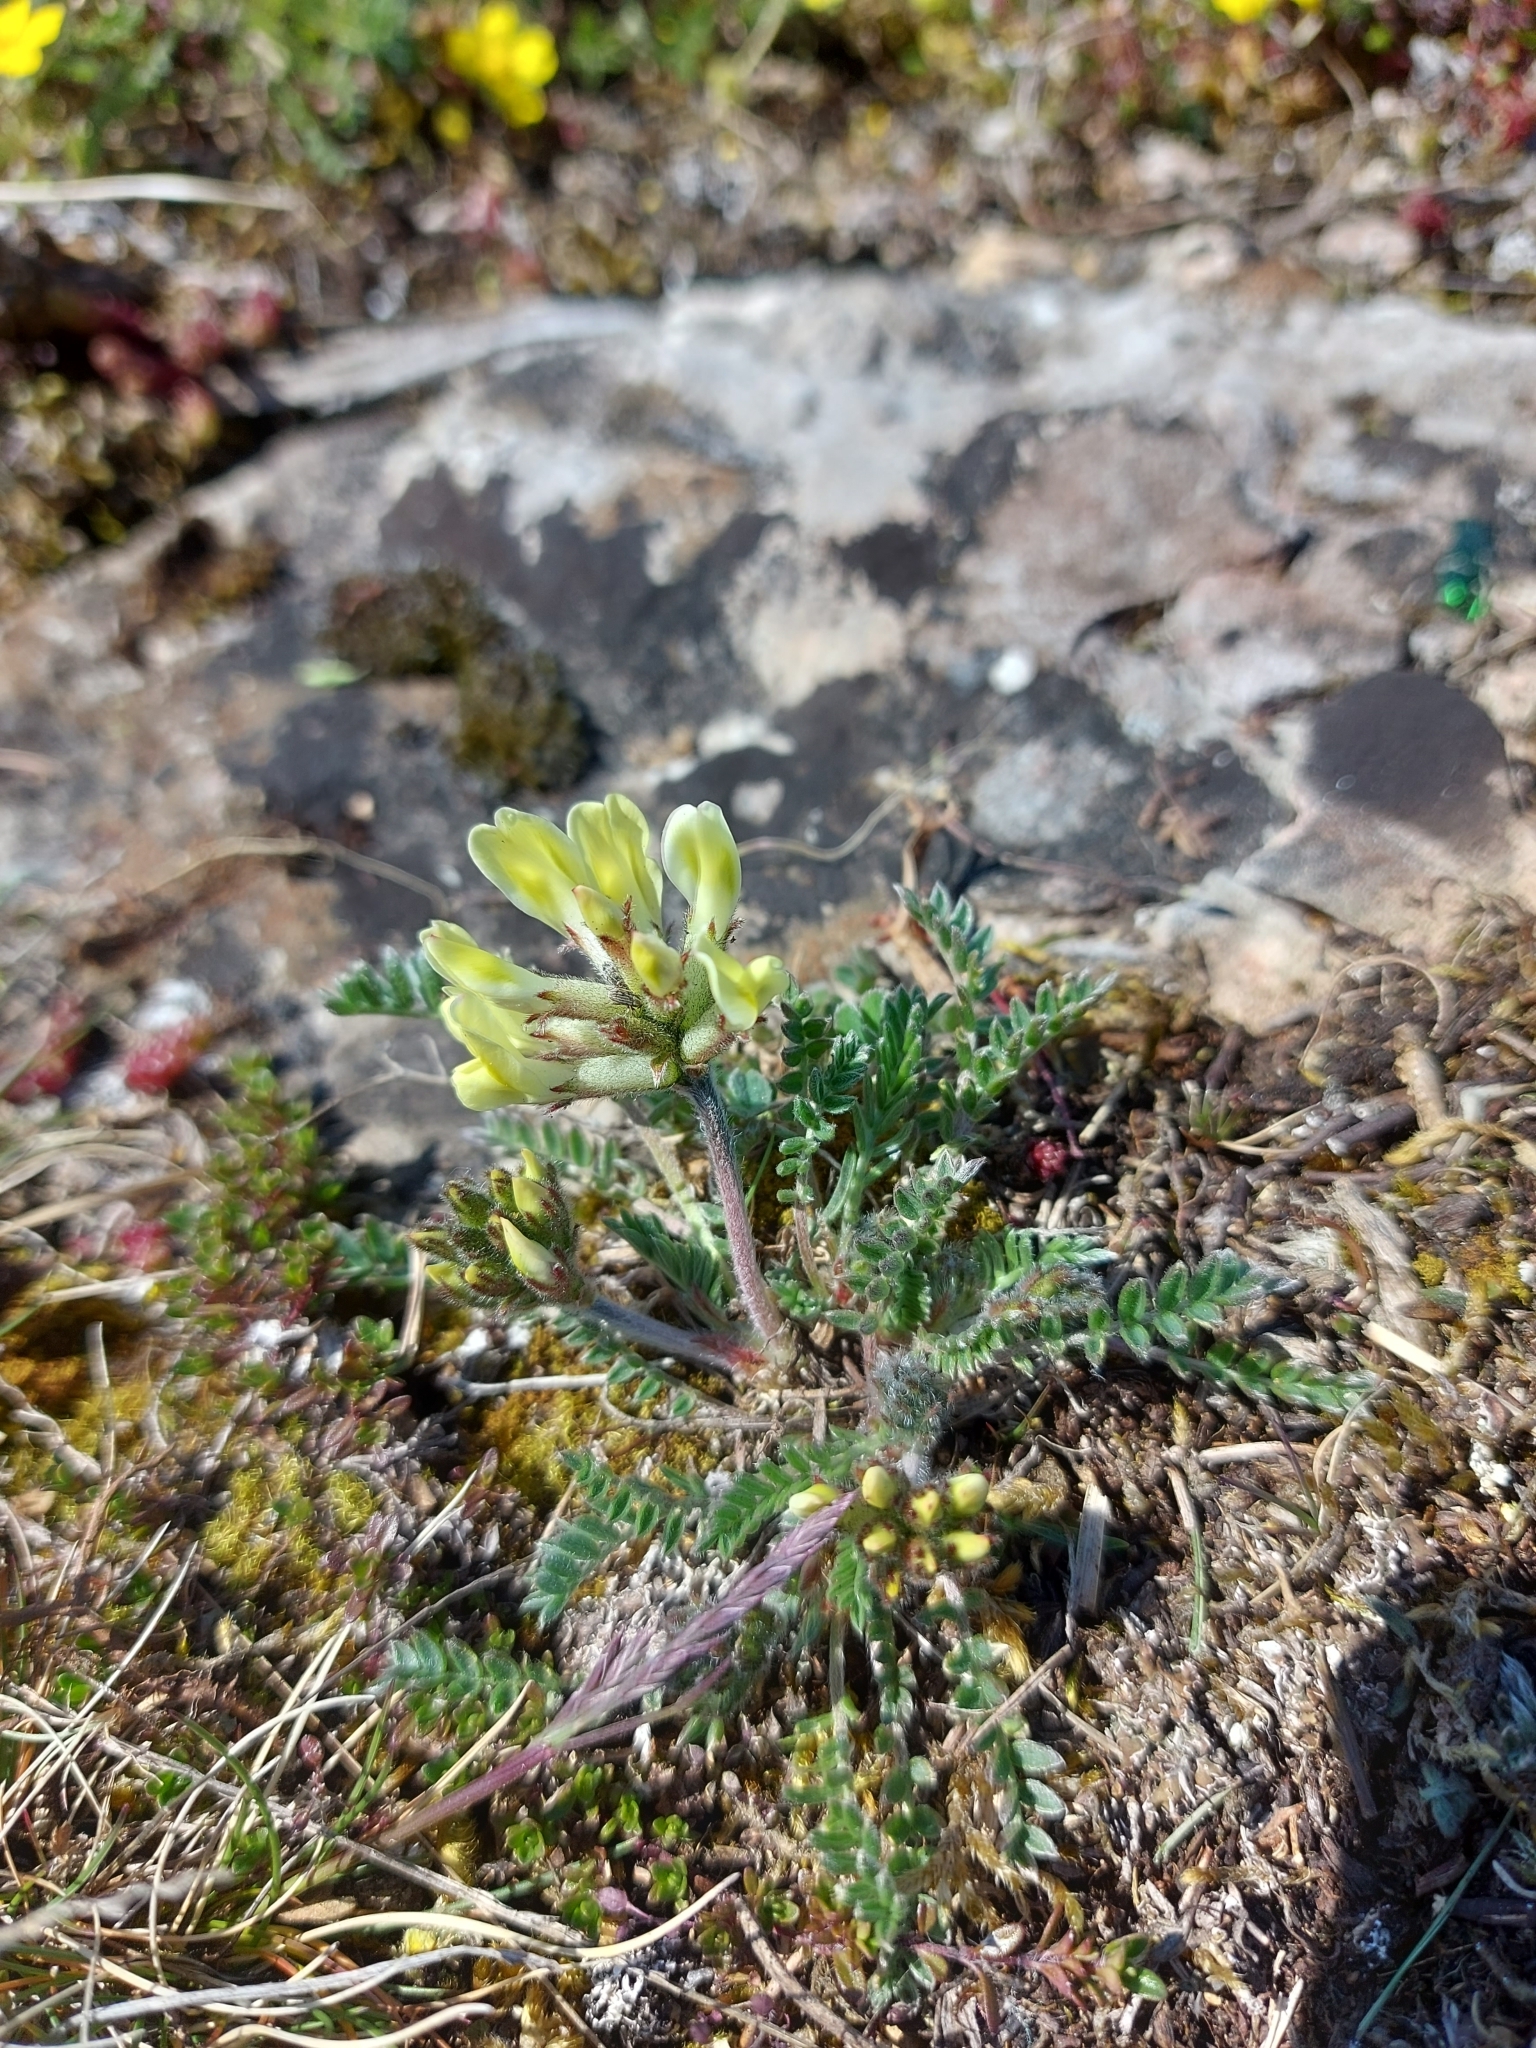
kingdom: Plantae
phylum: Tracheophyta
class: Magnoliopsida
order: Fabales
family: Fabaceae
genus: Oxytropis
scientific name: Oxytropis campestris
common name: Field locoweed
